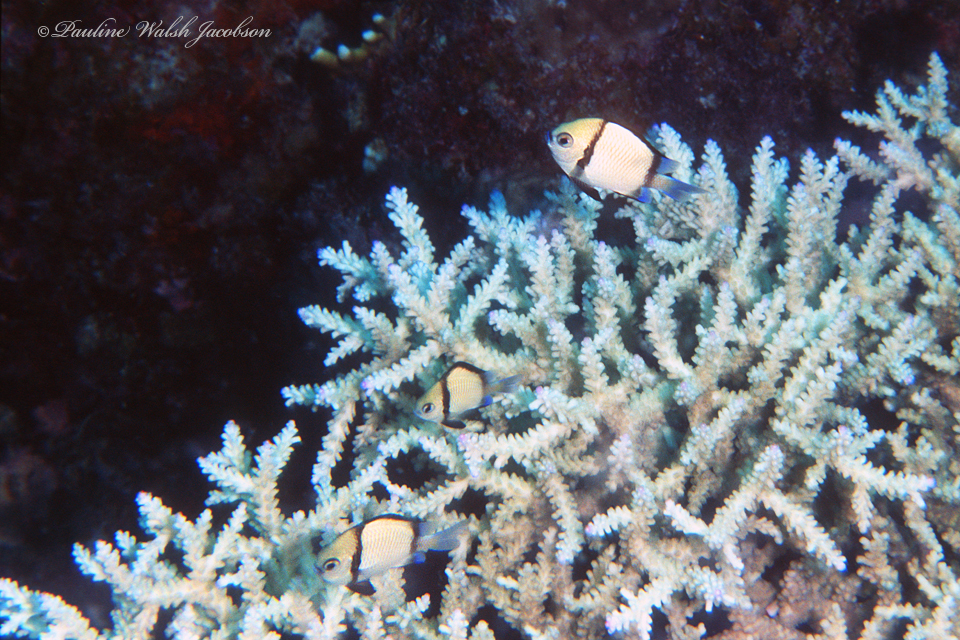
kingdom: Animalia
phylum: Chordata
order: Perciformes
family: Pomacentridae
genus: Dascyllus
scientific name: Dascyllus reticulatus
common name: Reticulated dascyllus
